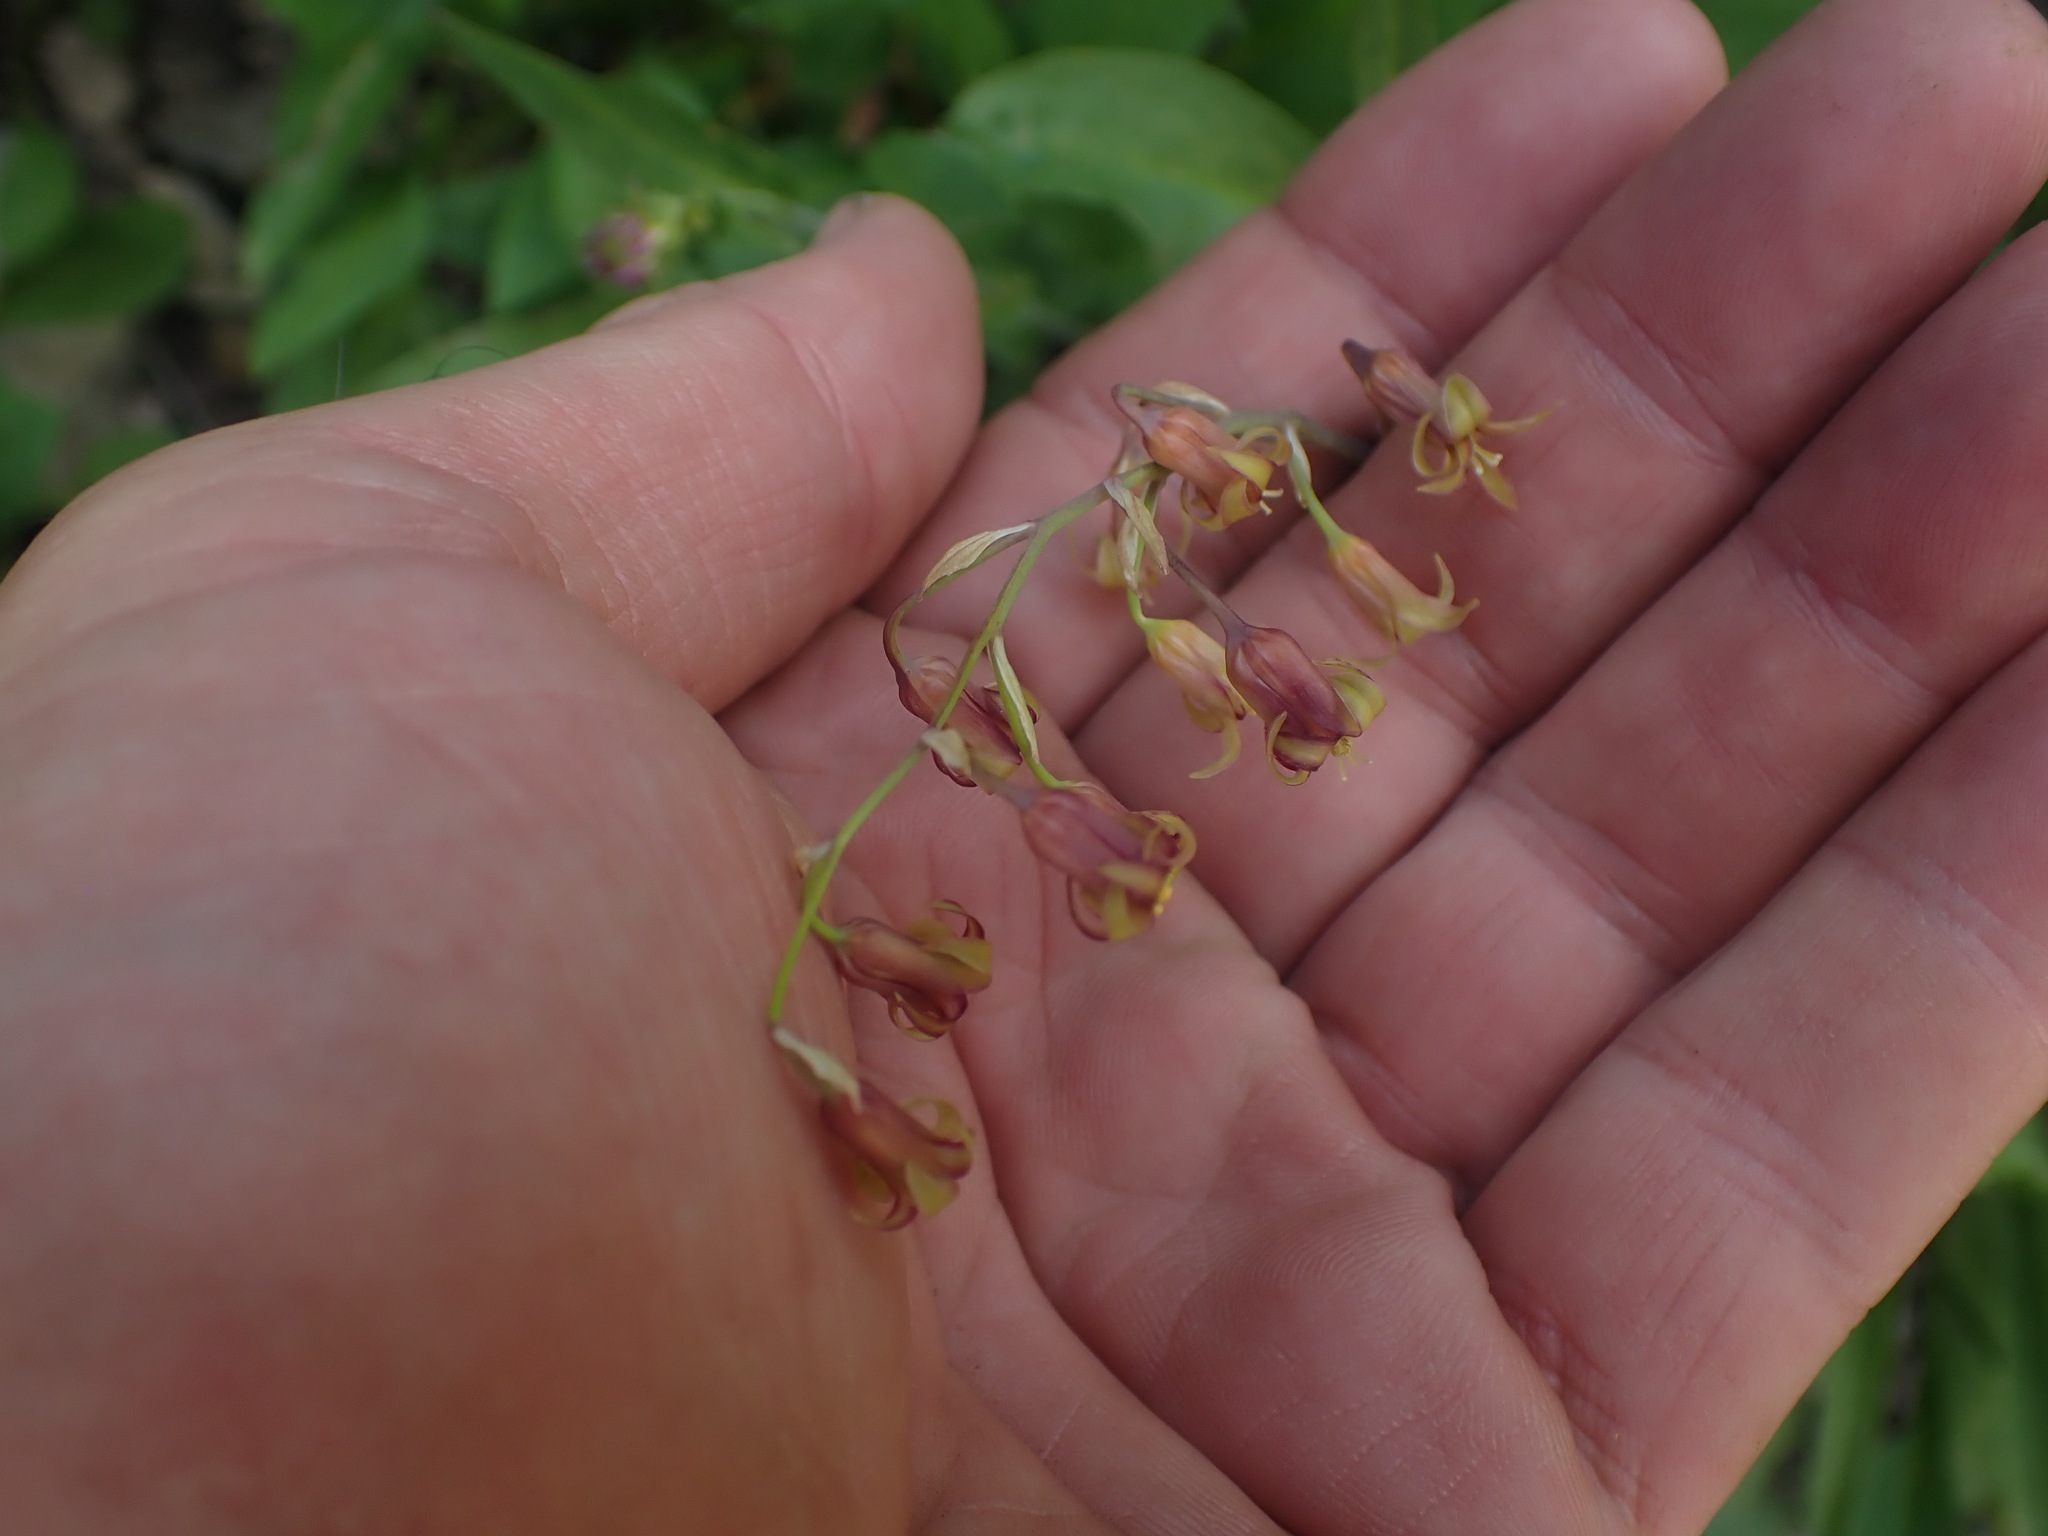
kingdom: Plantae
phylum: Tracheophyta
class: Liliopsida
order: Liliales
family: Melanthiaceae
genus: Anticlea
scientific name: Anticlea occidentalis
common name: Bronze-bells
